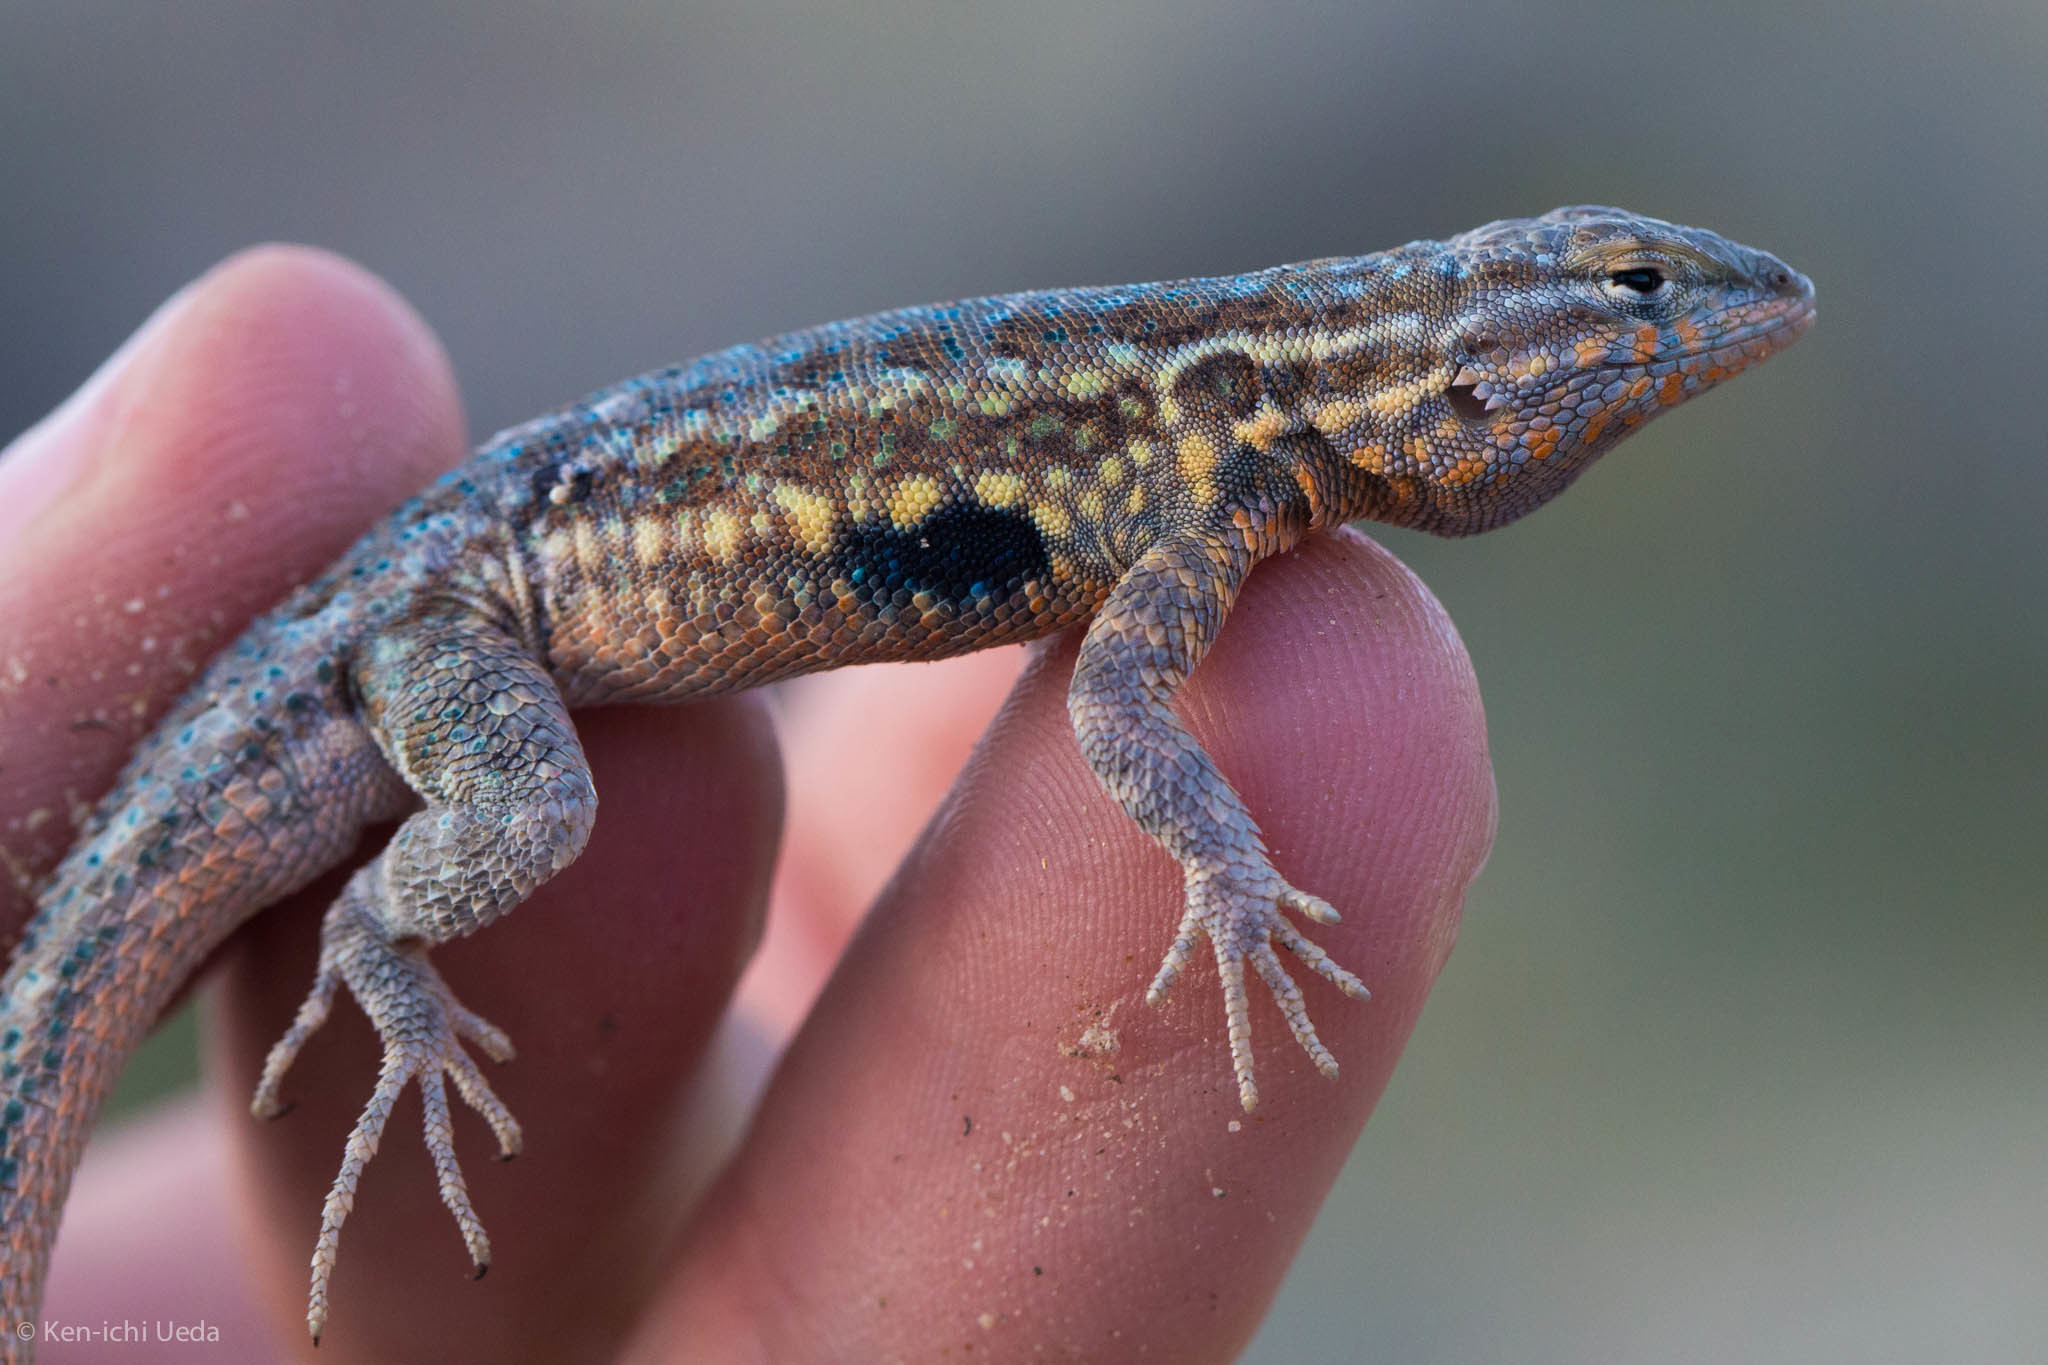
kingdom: Animalia
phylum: Chordata
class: Squamata
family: Phrynosomatidae
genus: Uta
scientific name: Uta stansburiana
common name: Side-blotched lizard
